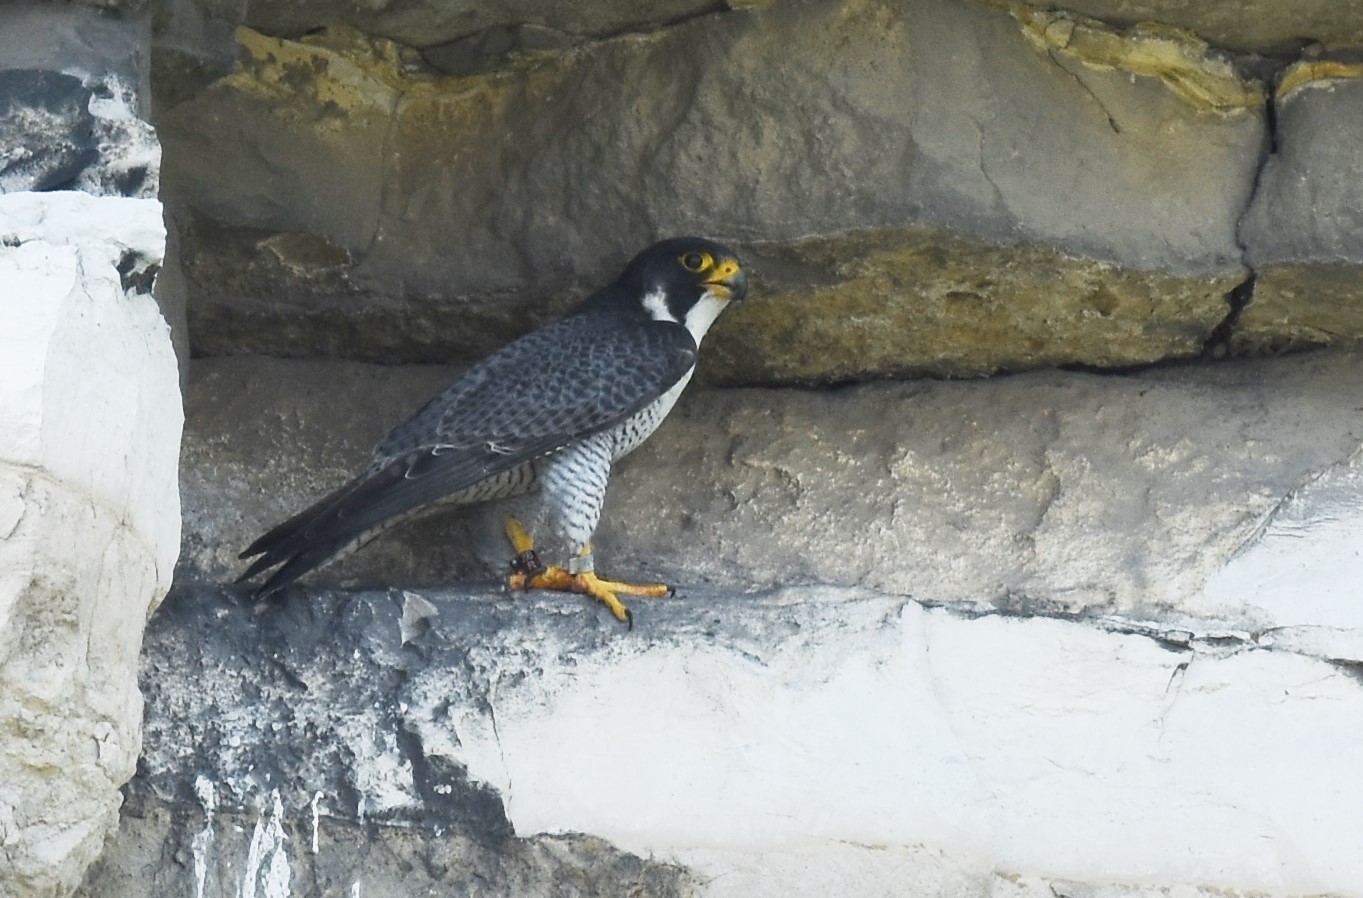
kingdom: Animalia
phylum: Chordata
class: Aves
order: Falconiformes
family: Falconidae
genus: Falco
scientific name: Falco peregrinus
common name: Peregrine falcon
